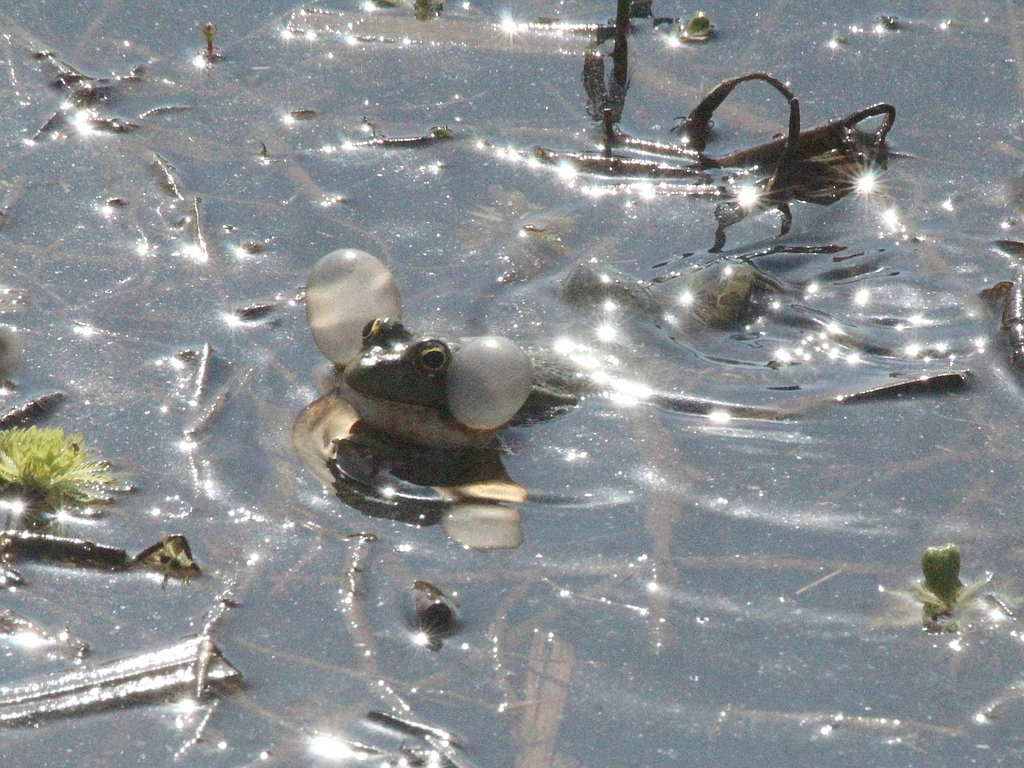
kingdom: Animalia
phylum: Chordata
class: Amphibia
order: Anura
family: Ranidae
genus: Pelophylax
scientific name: Pelophylax ridibundus
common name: Marsh frog
